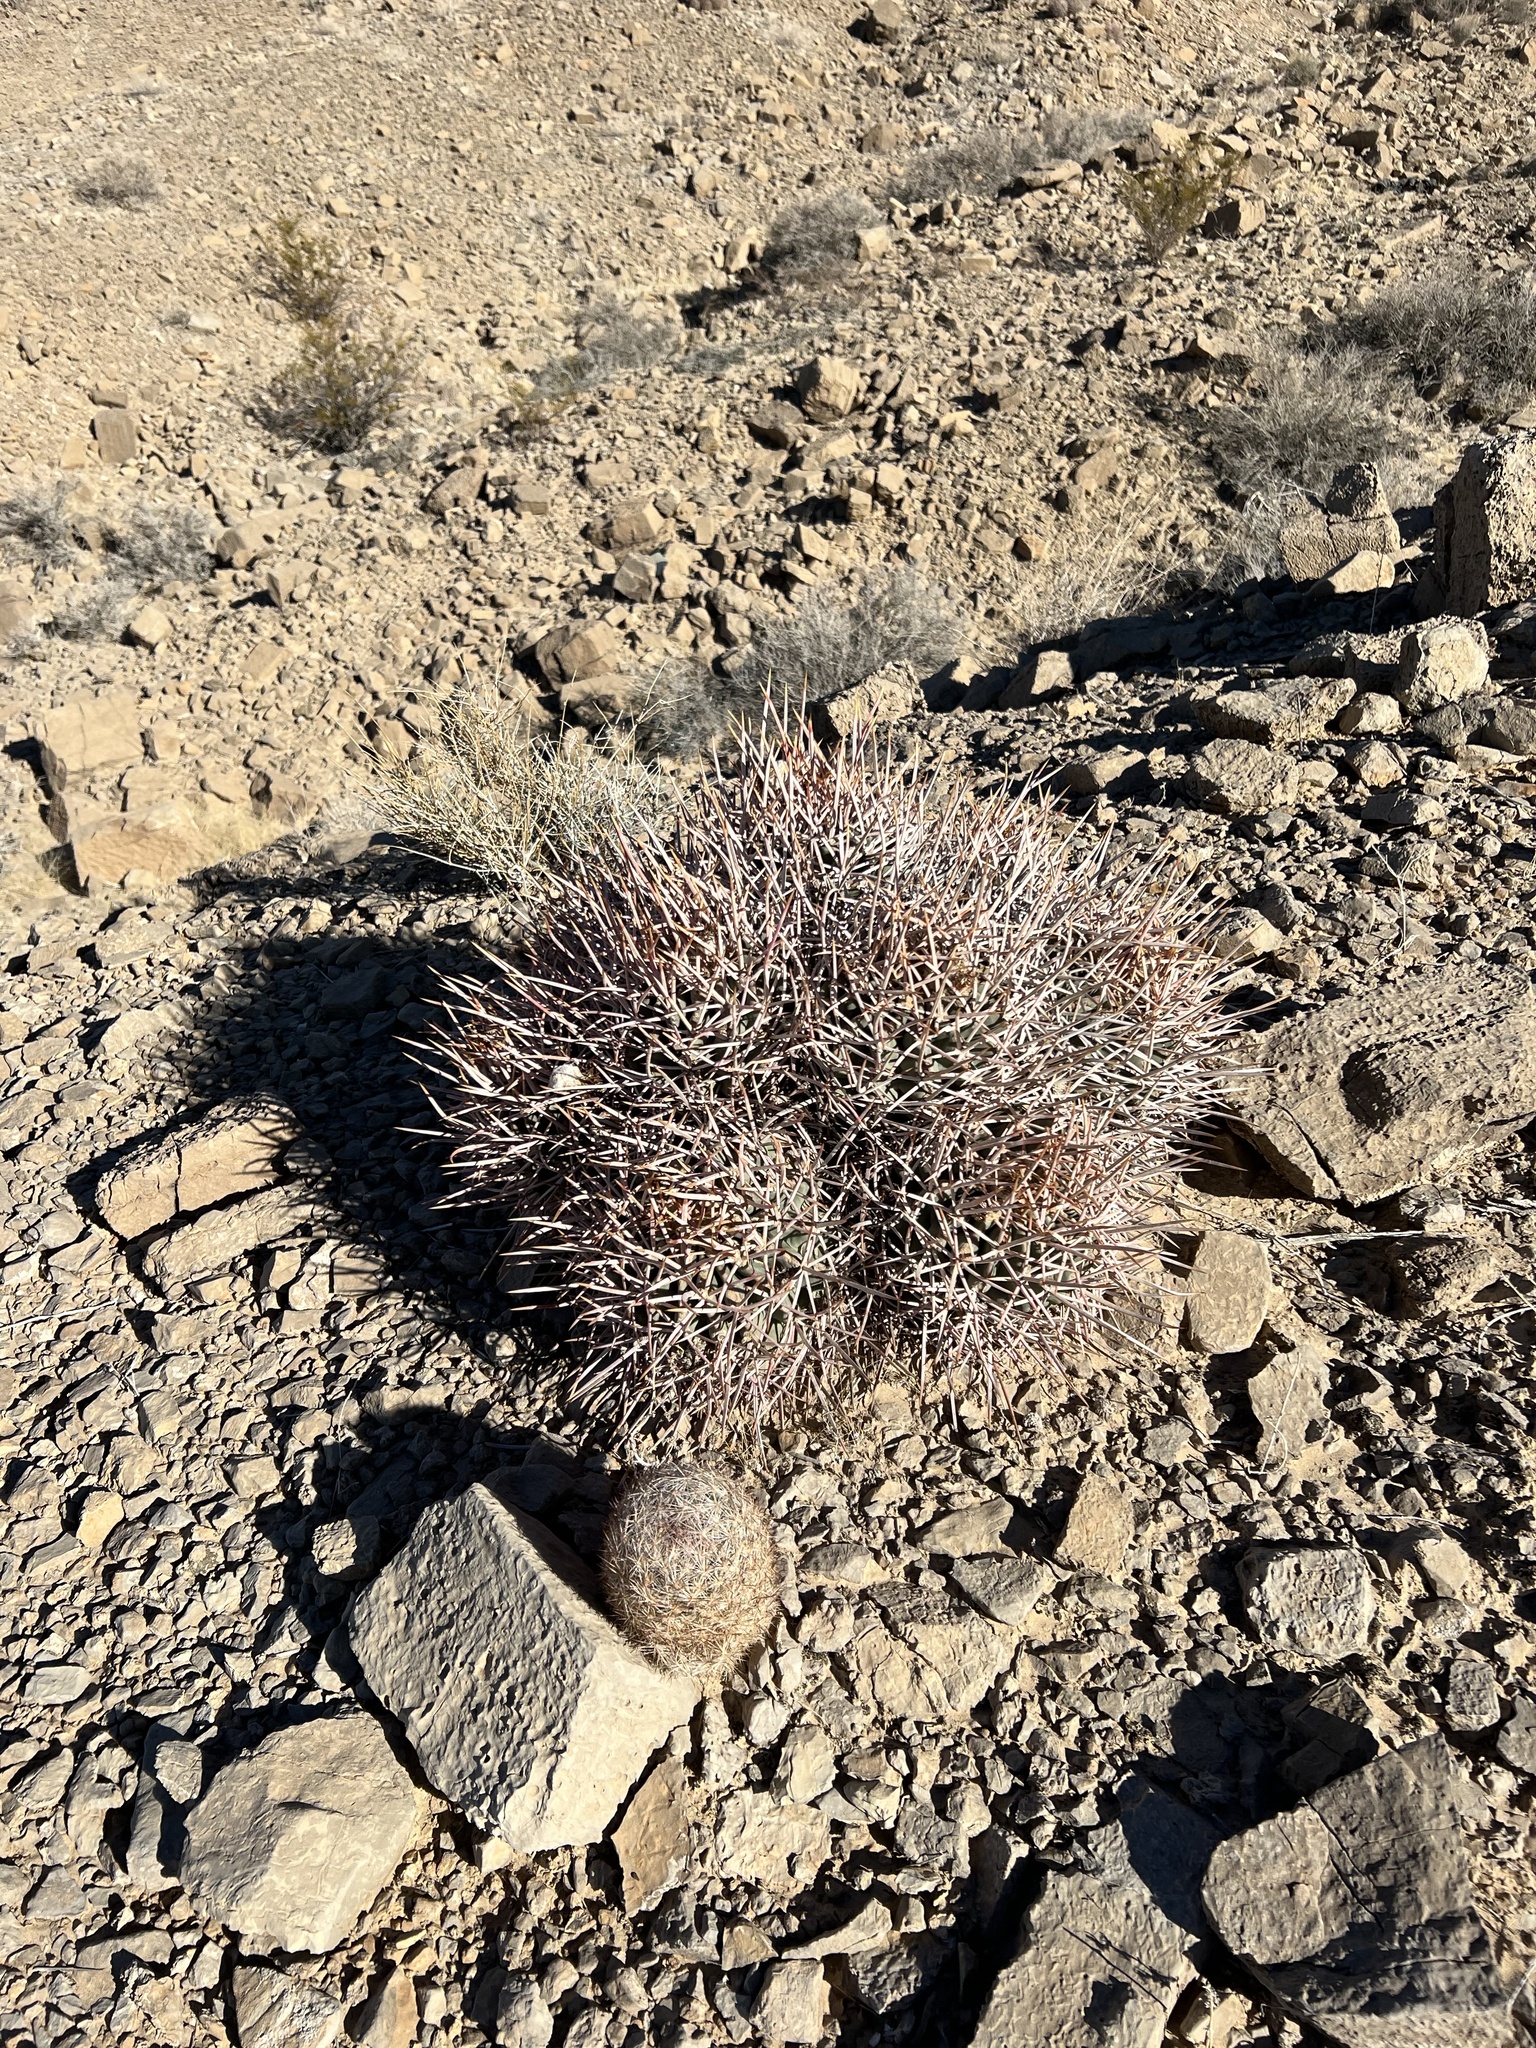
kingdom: Plantae
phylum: Tracheophyta
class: Magnoliopsida
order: Caryophyllales
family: Cactaceae
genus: Pelecyphora
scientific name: Pelecyphora dasyacantha
